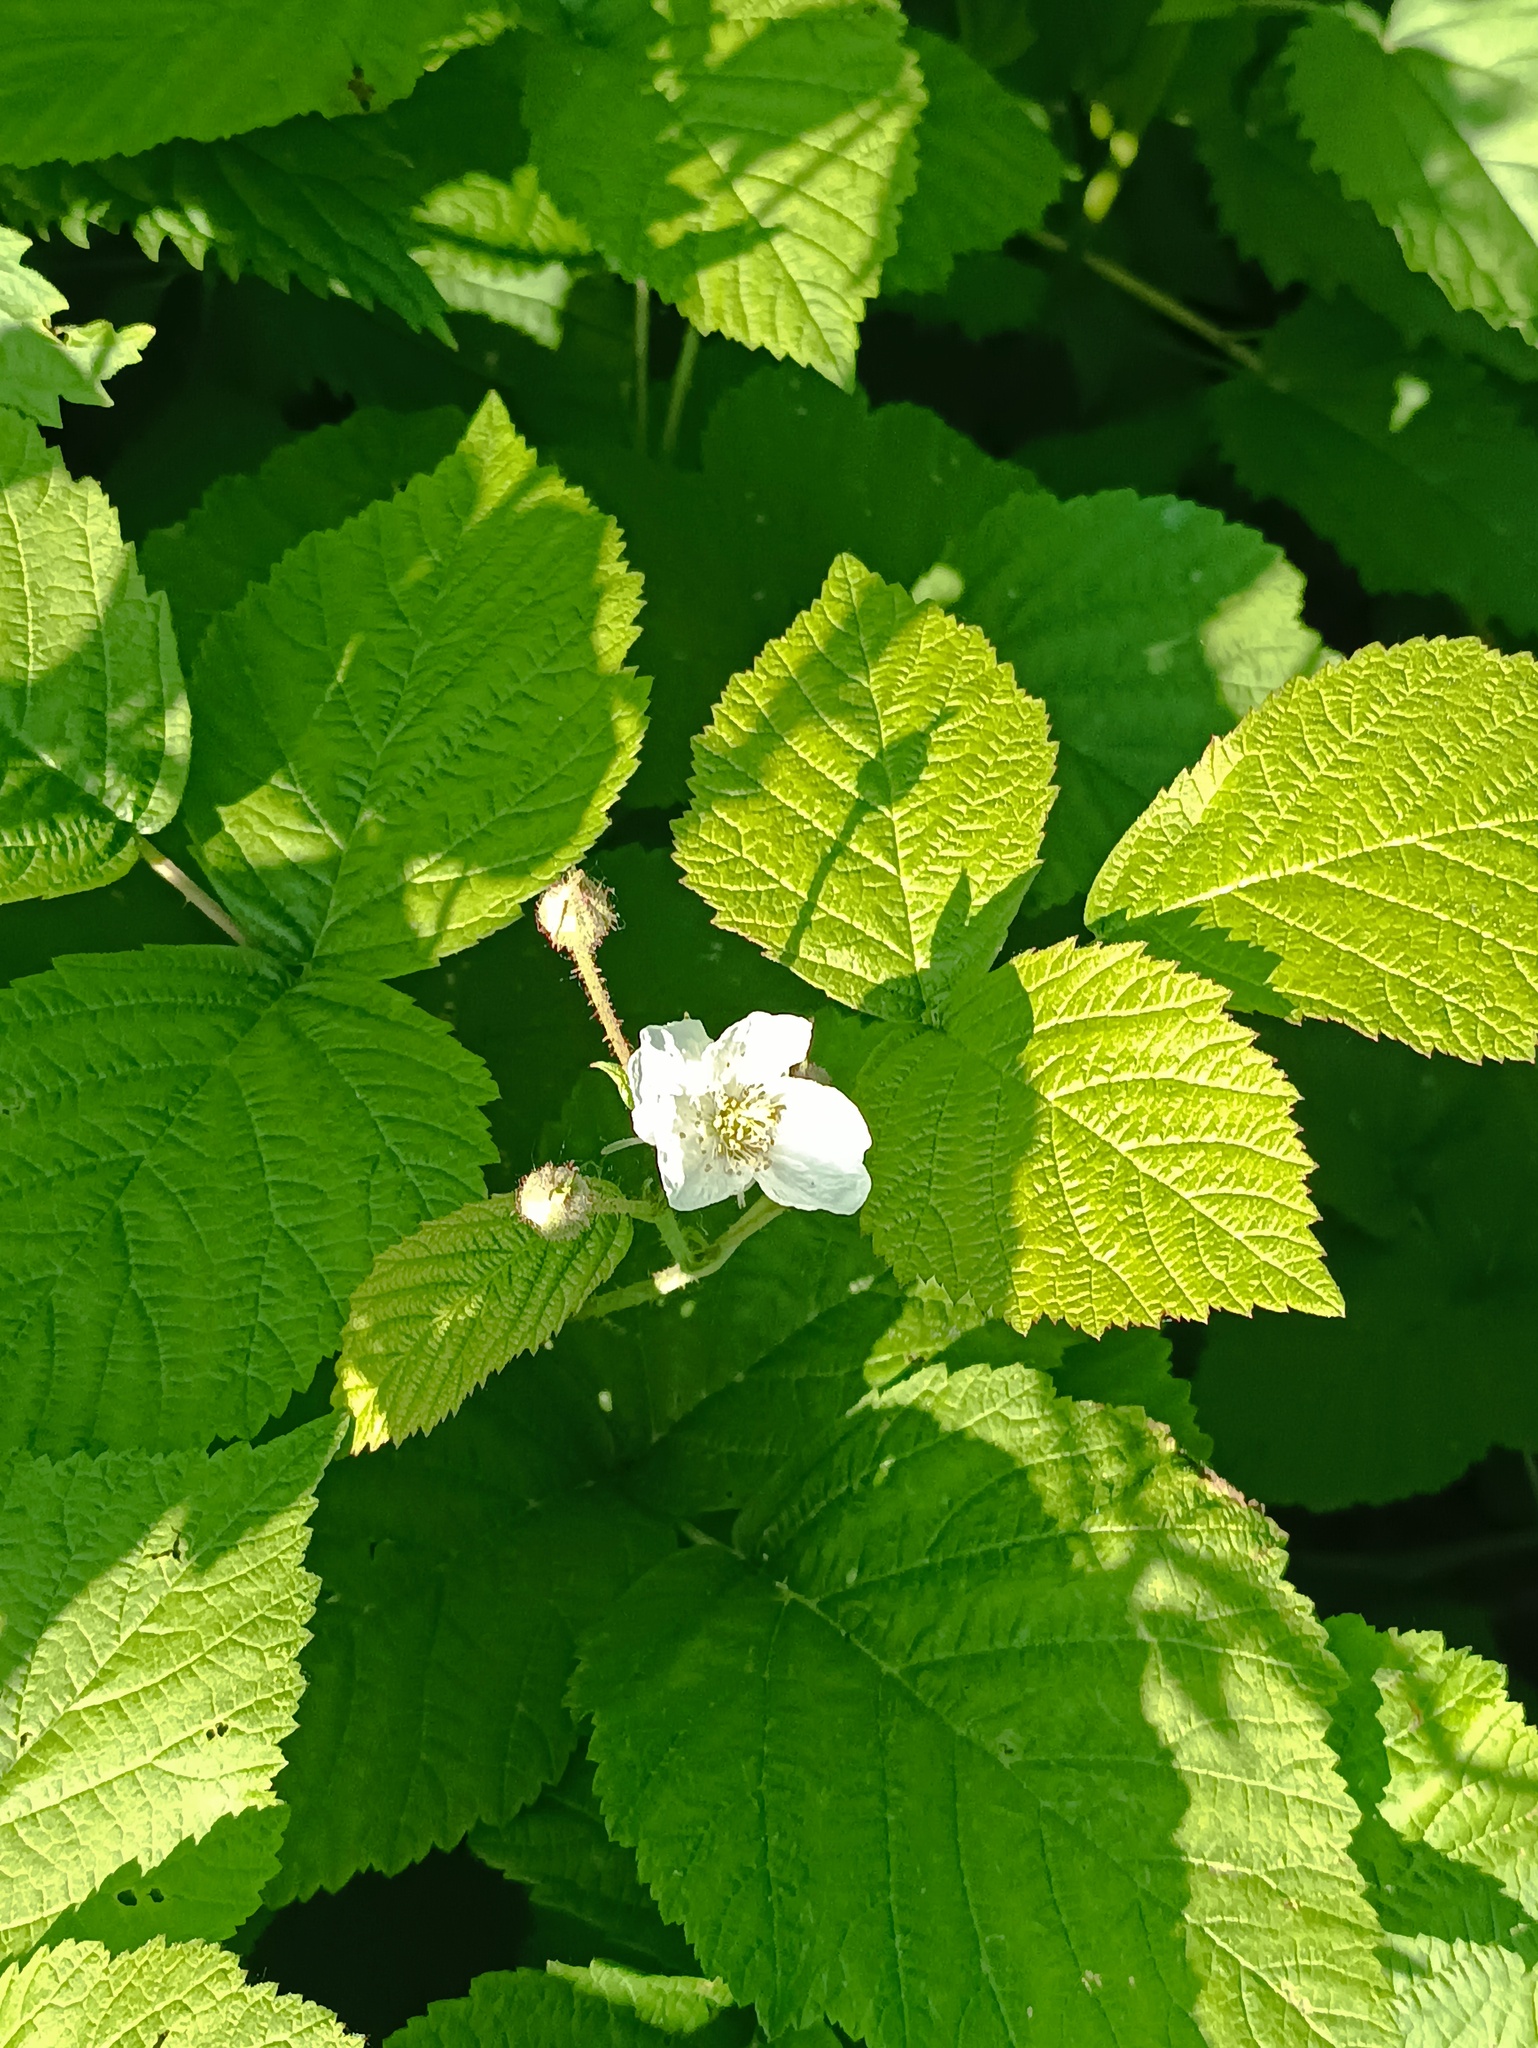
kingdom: Plantae
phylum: Tracheophyta
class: Magnoliopsida
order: Rosales
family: Rosaceae
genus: Rubus
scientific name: Rubus caesius
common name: Dewberry
